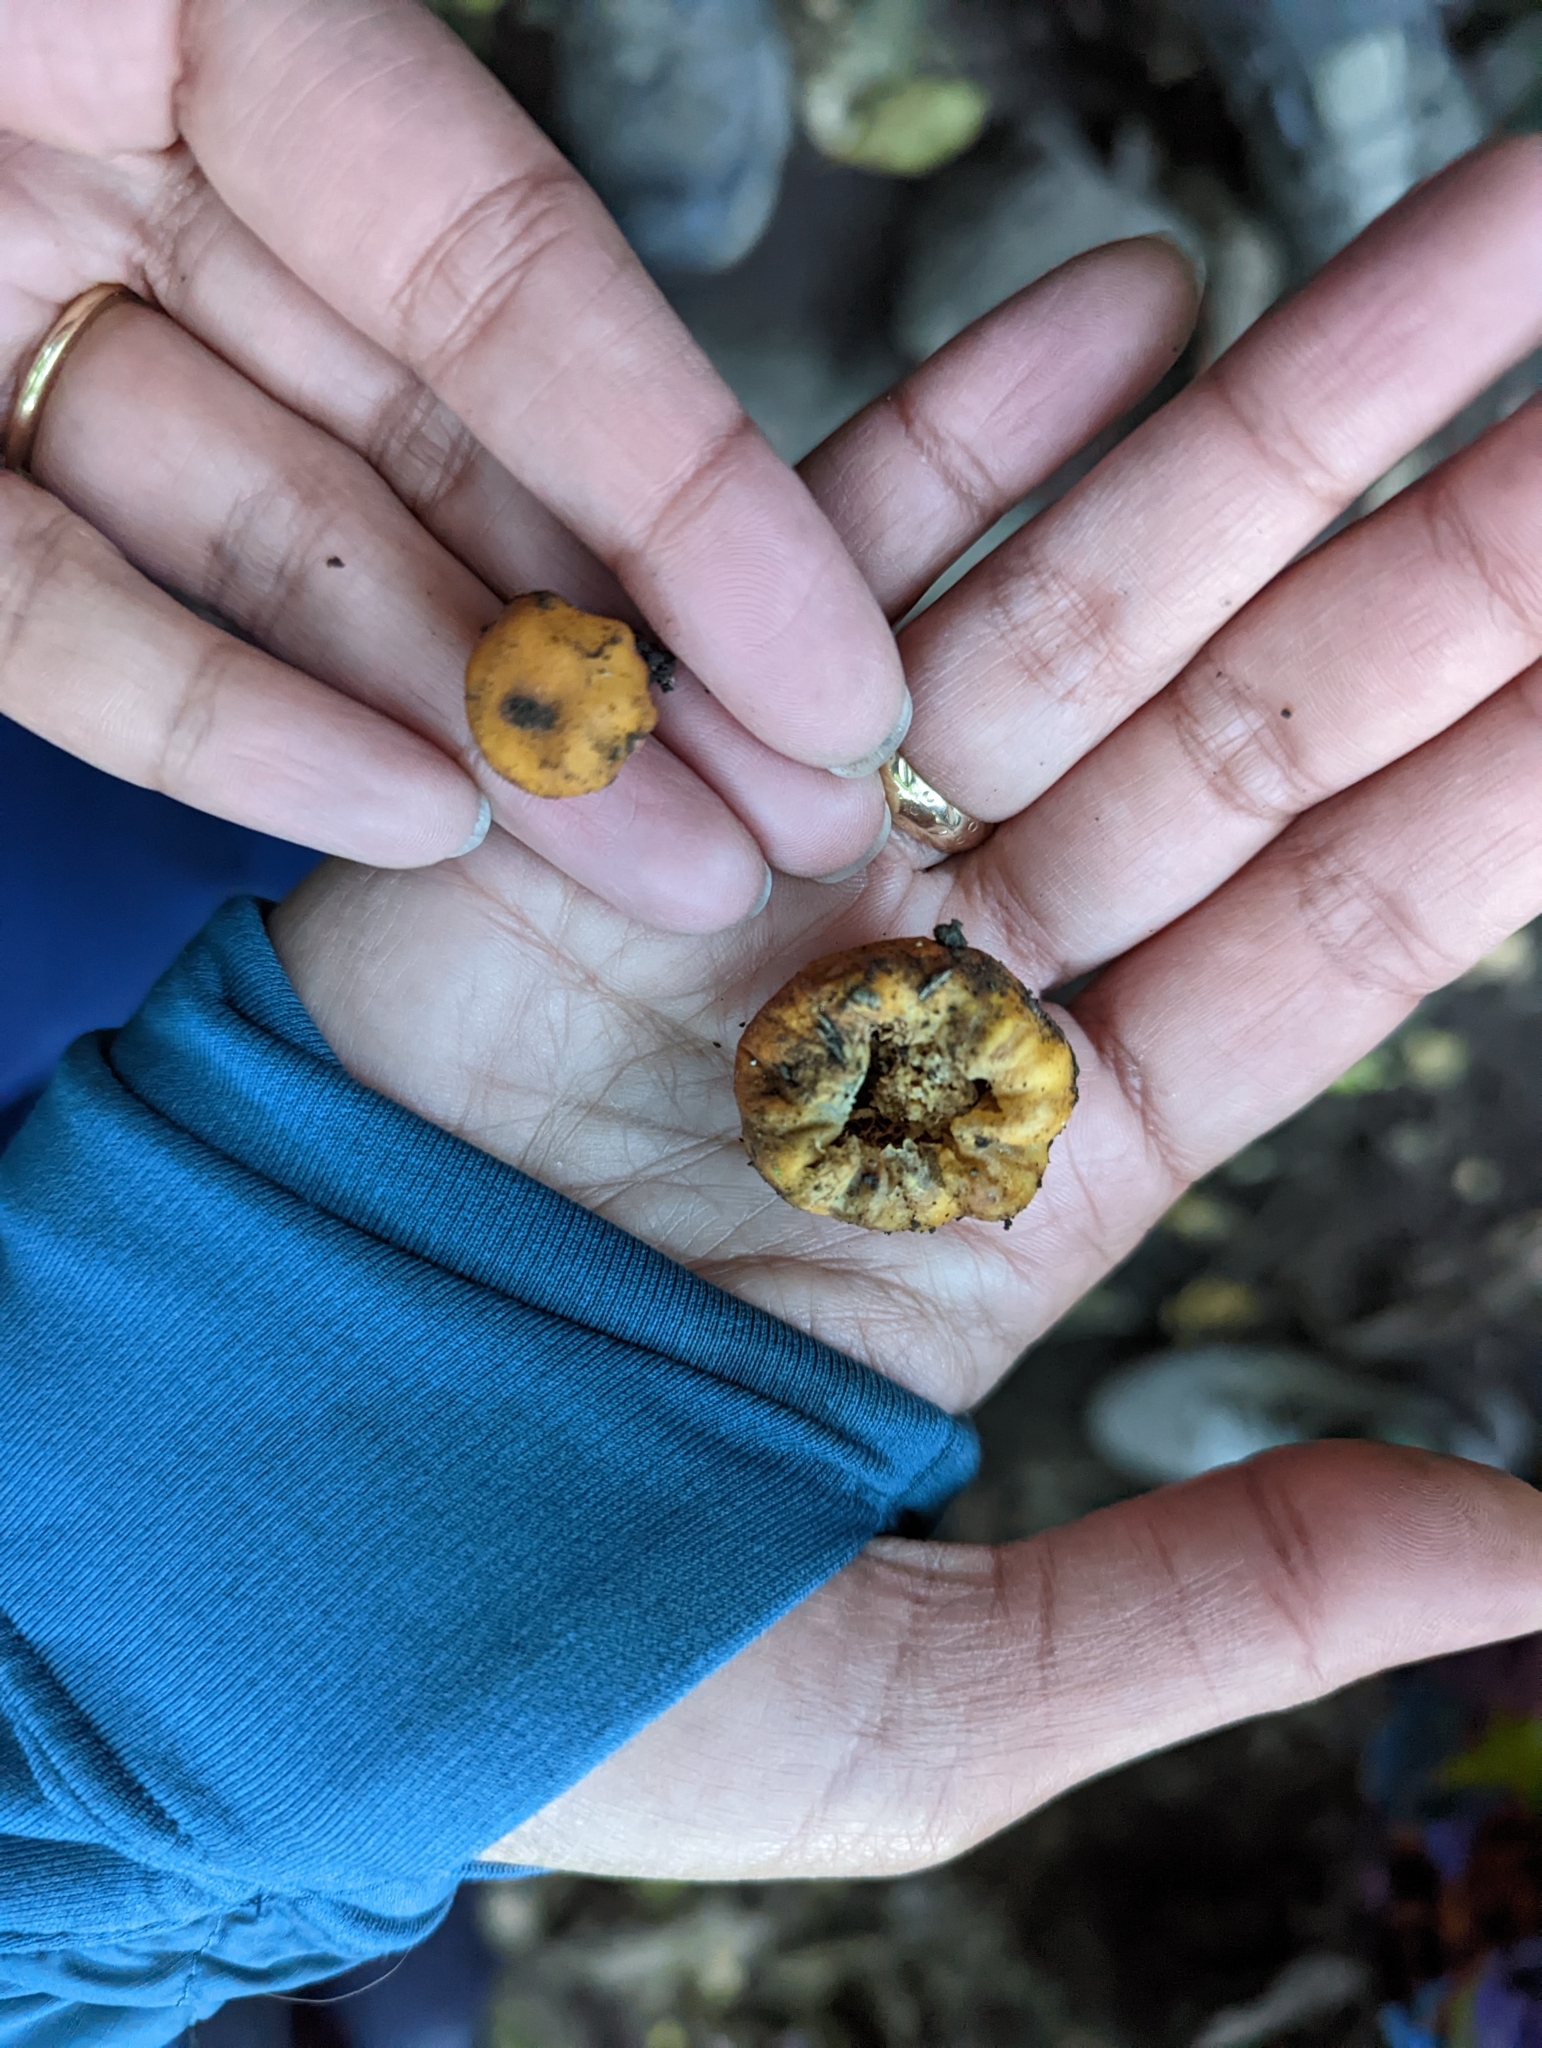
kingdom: Fungi
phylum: Basidiomycota
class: Agaricomycetes
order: Agaricales
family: Strophariaceae
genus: Leratiomyces
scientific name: Leratiomyces erythrocephalus
